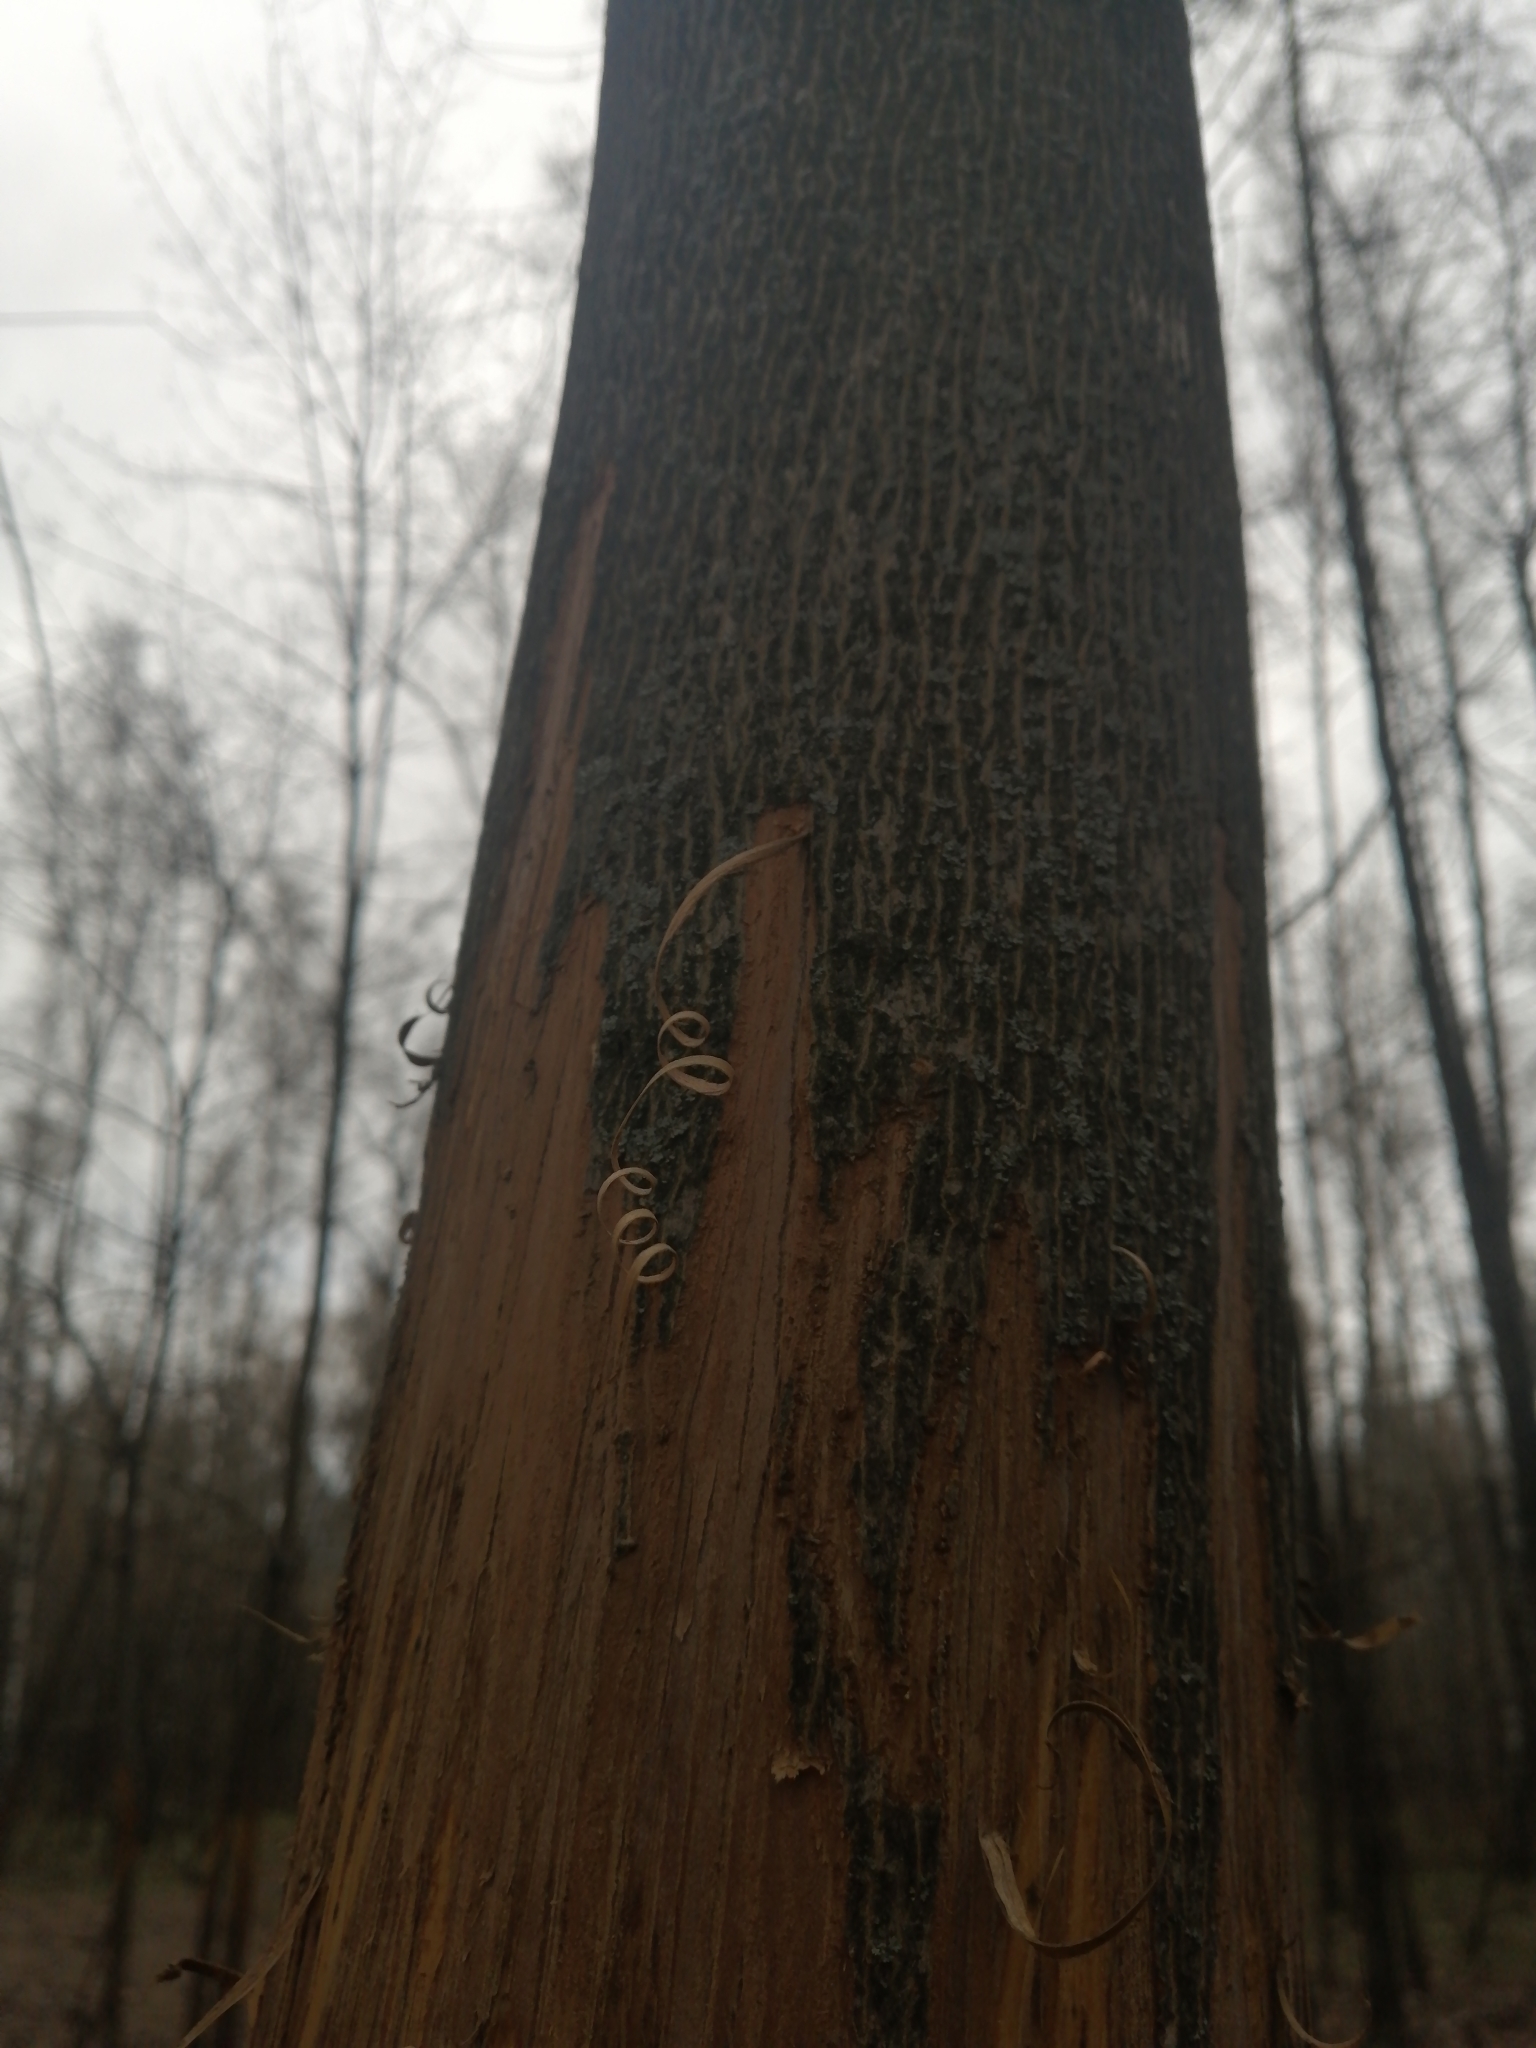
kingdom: Animalia
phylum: Chordata
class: Mammalia
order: Artiodactyla
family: Cervidae
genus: Alces
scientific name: Alces alces
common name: Moose
